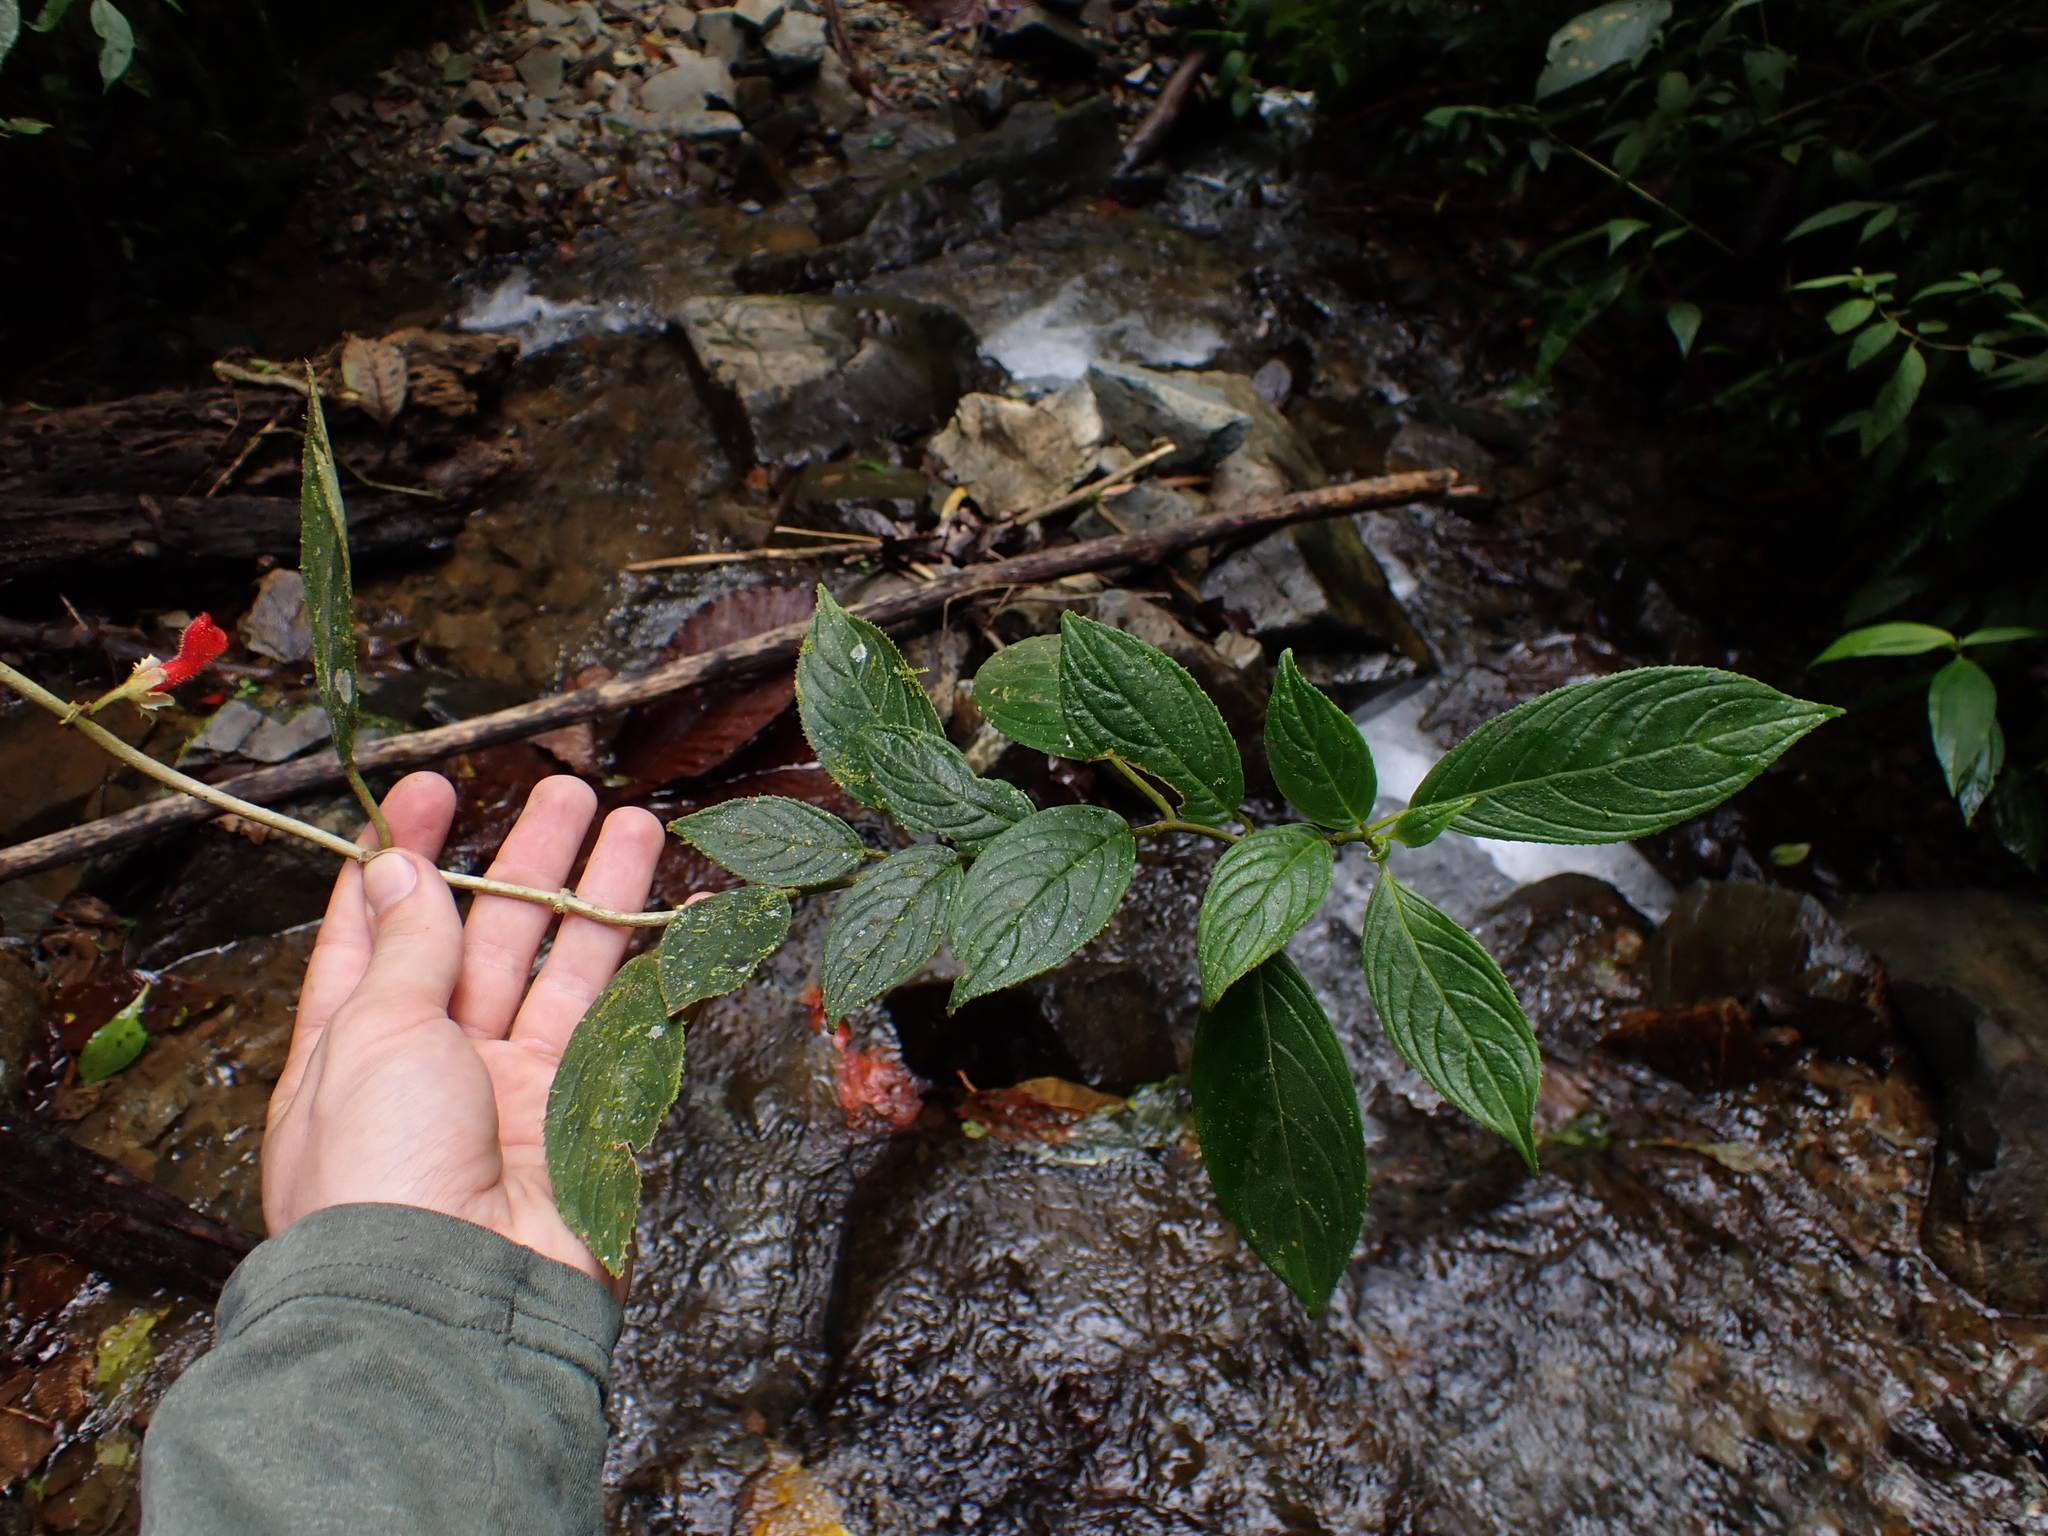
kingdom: Plantae
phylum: Tracheophyta
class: Magnoliopsida
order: Lamiales
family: Gesneriaceae
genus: Glossoloma
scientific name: Glossoloma scandens
